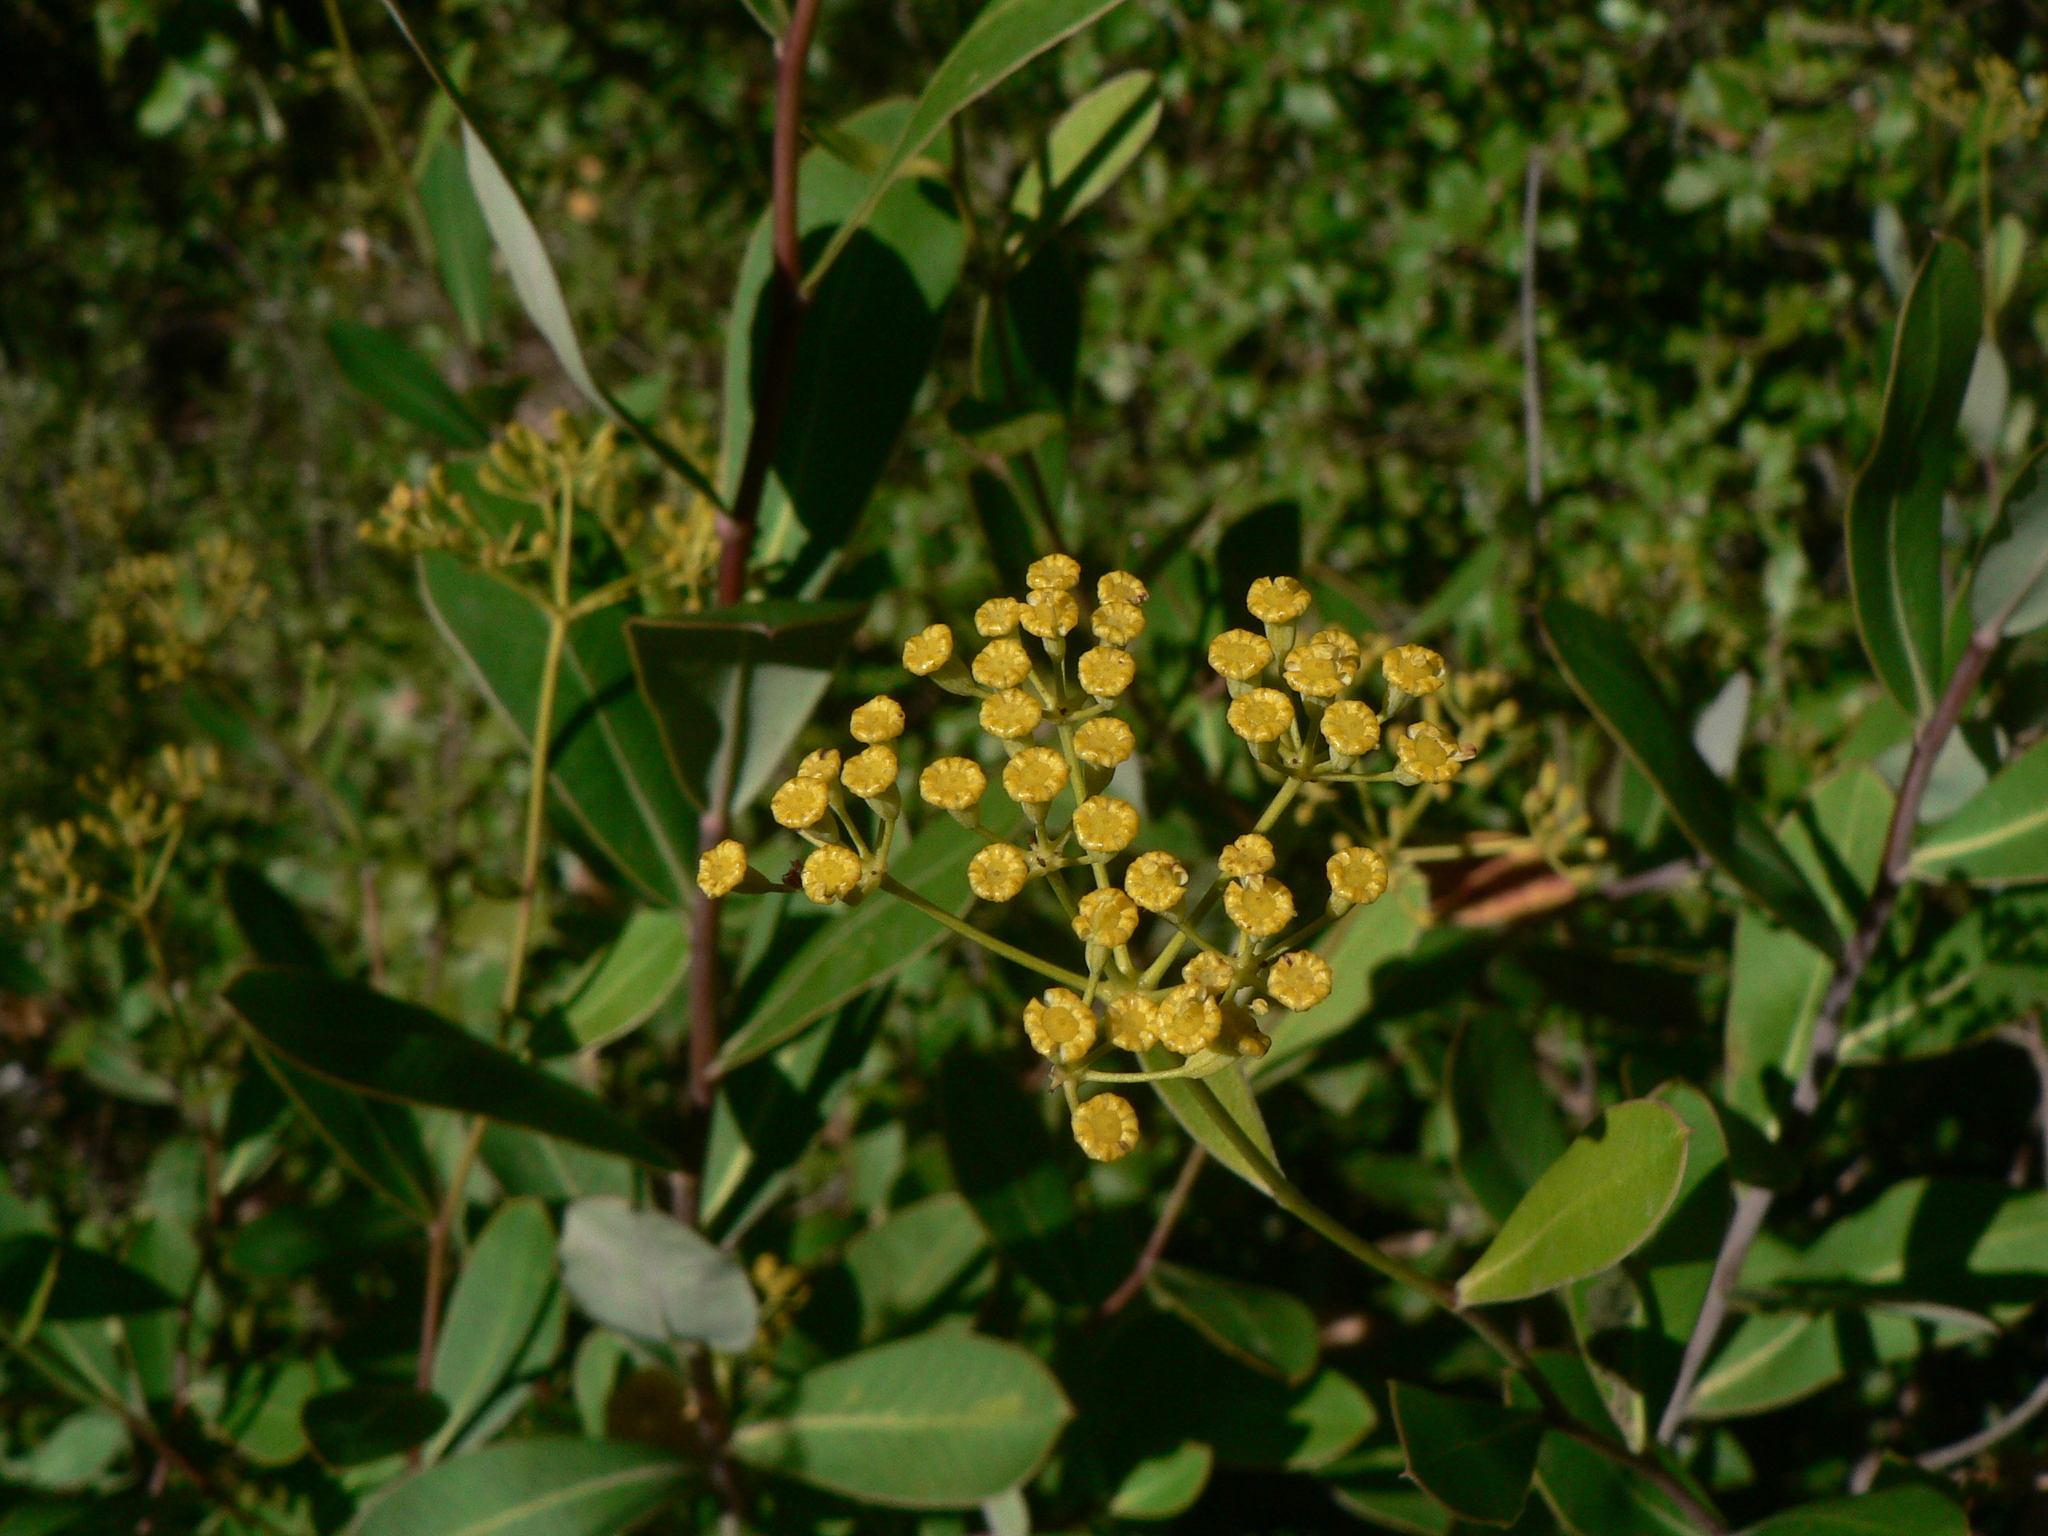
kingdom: Plantae
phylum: Tracheophyta
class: Magnoliopsida
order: Apiales
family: Apiaceae
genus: Bupleurum
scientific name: Bupleurum fruticosum
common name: Shrubby hare's-ear
